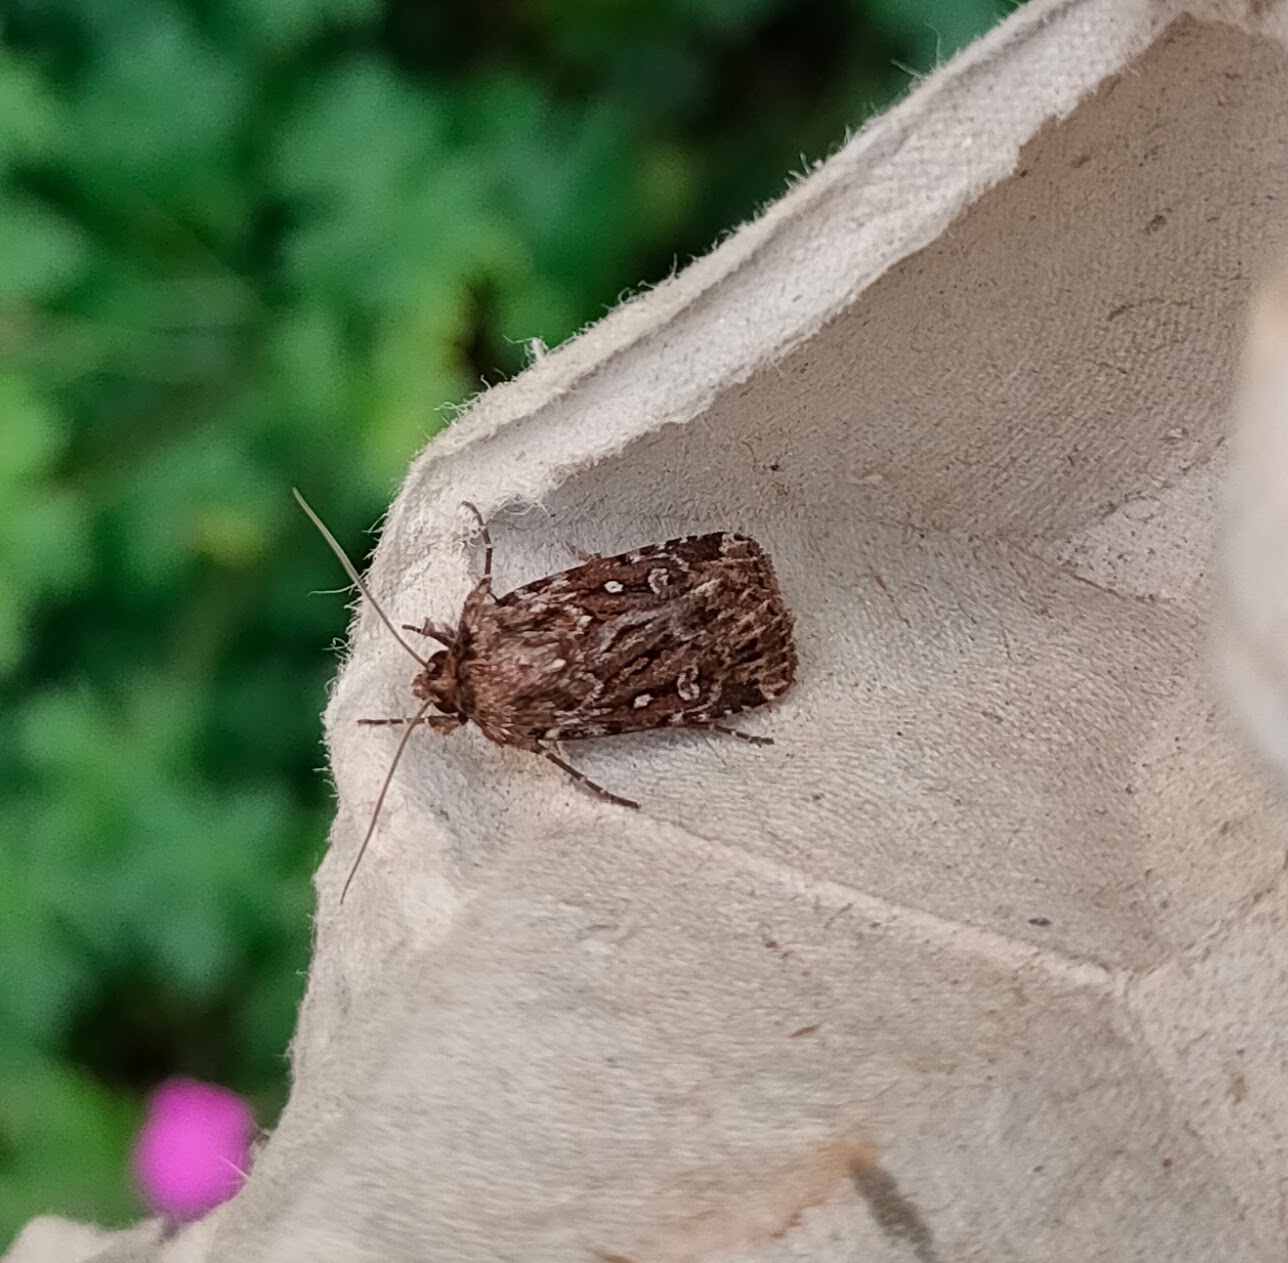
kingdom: Animalia
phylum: Arthropoda
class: Insecta
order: Lepidoptera
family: Noctuidae
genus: Lycophotia
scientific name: Lycophotia porphyrea
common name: True lover's knot
